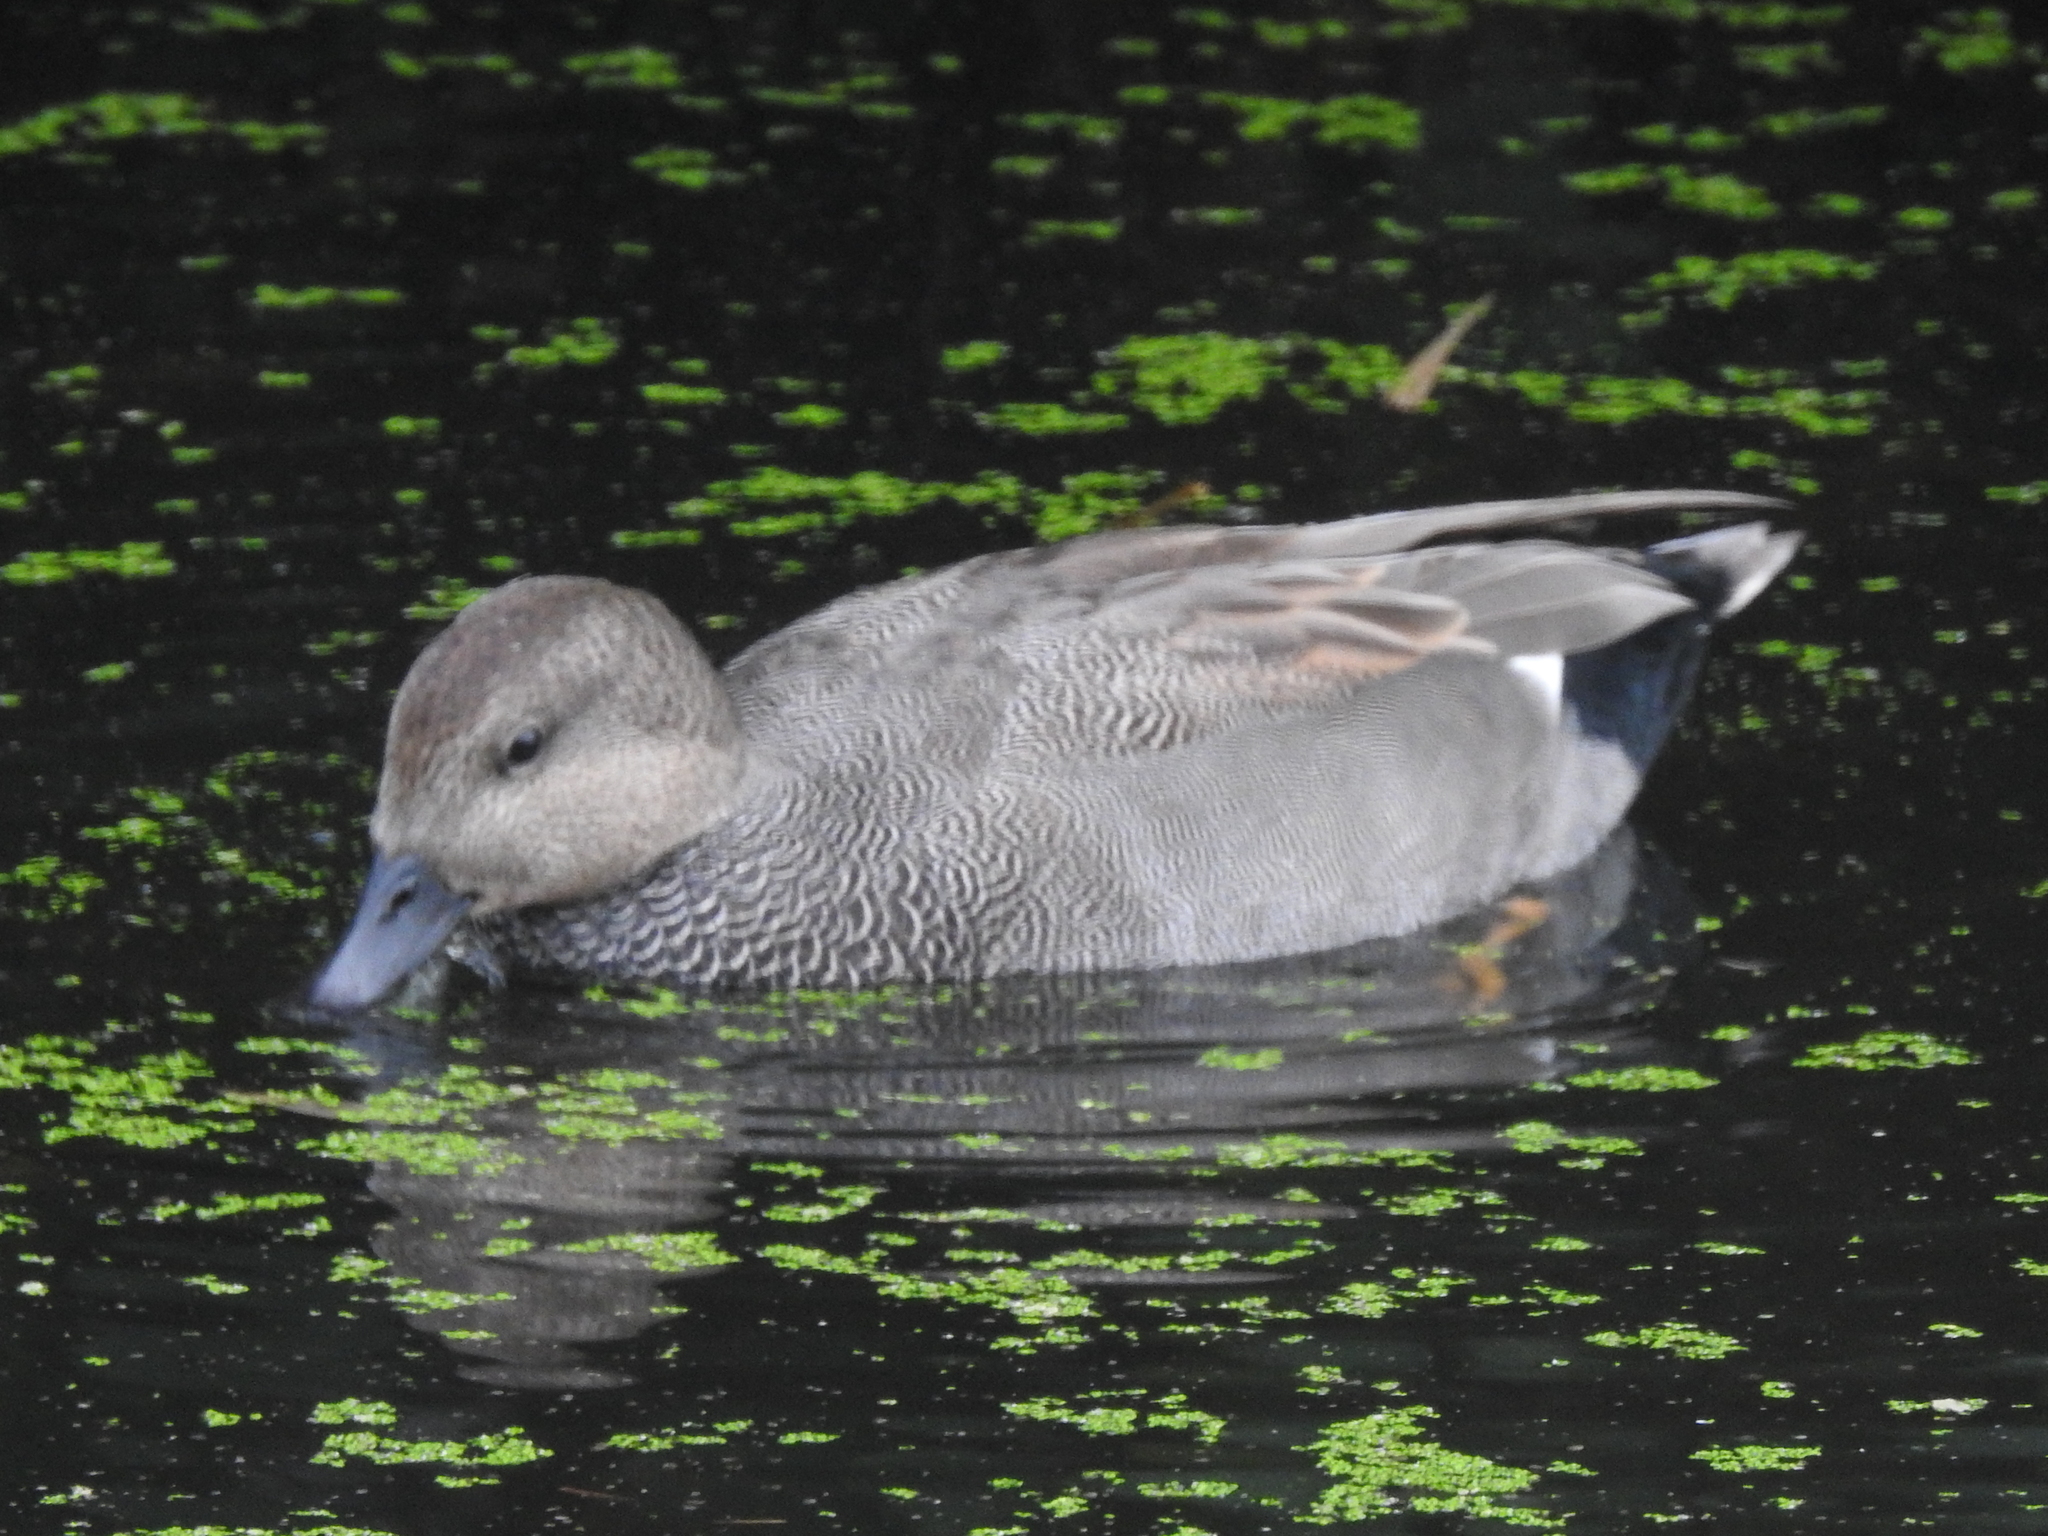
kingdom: Animalia
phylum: Chordata
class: Aves
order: Anseriformes
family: Anatidae
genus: Mareca
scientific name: Mareca strepera
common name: Gadwall
